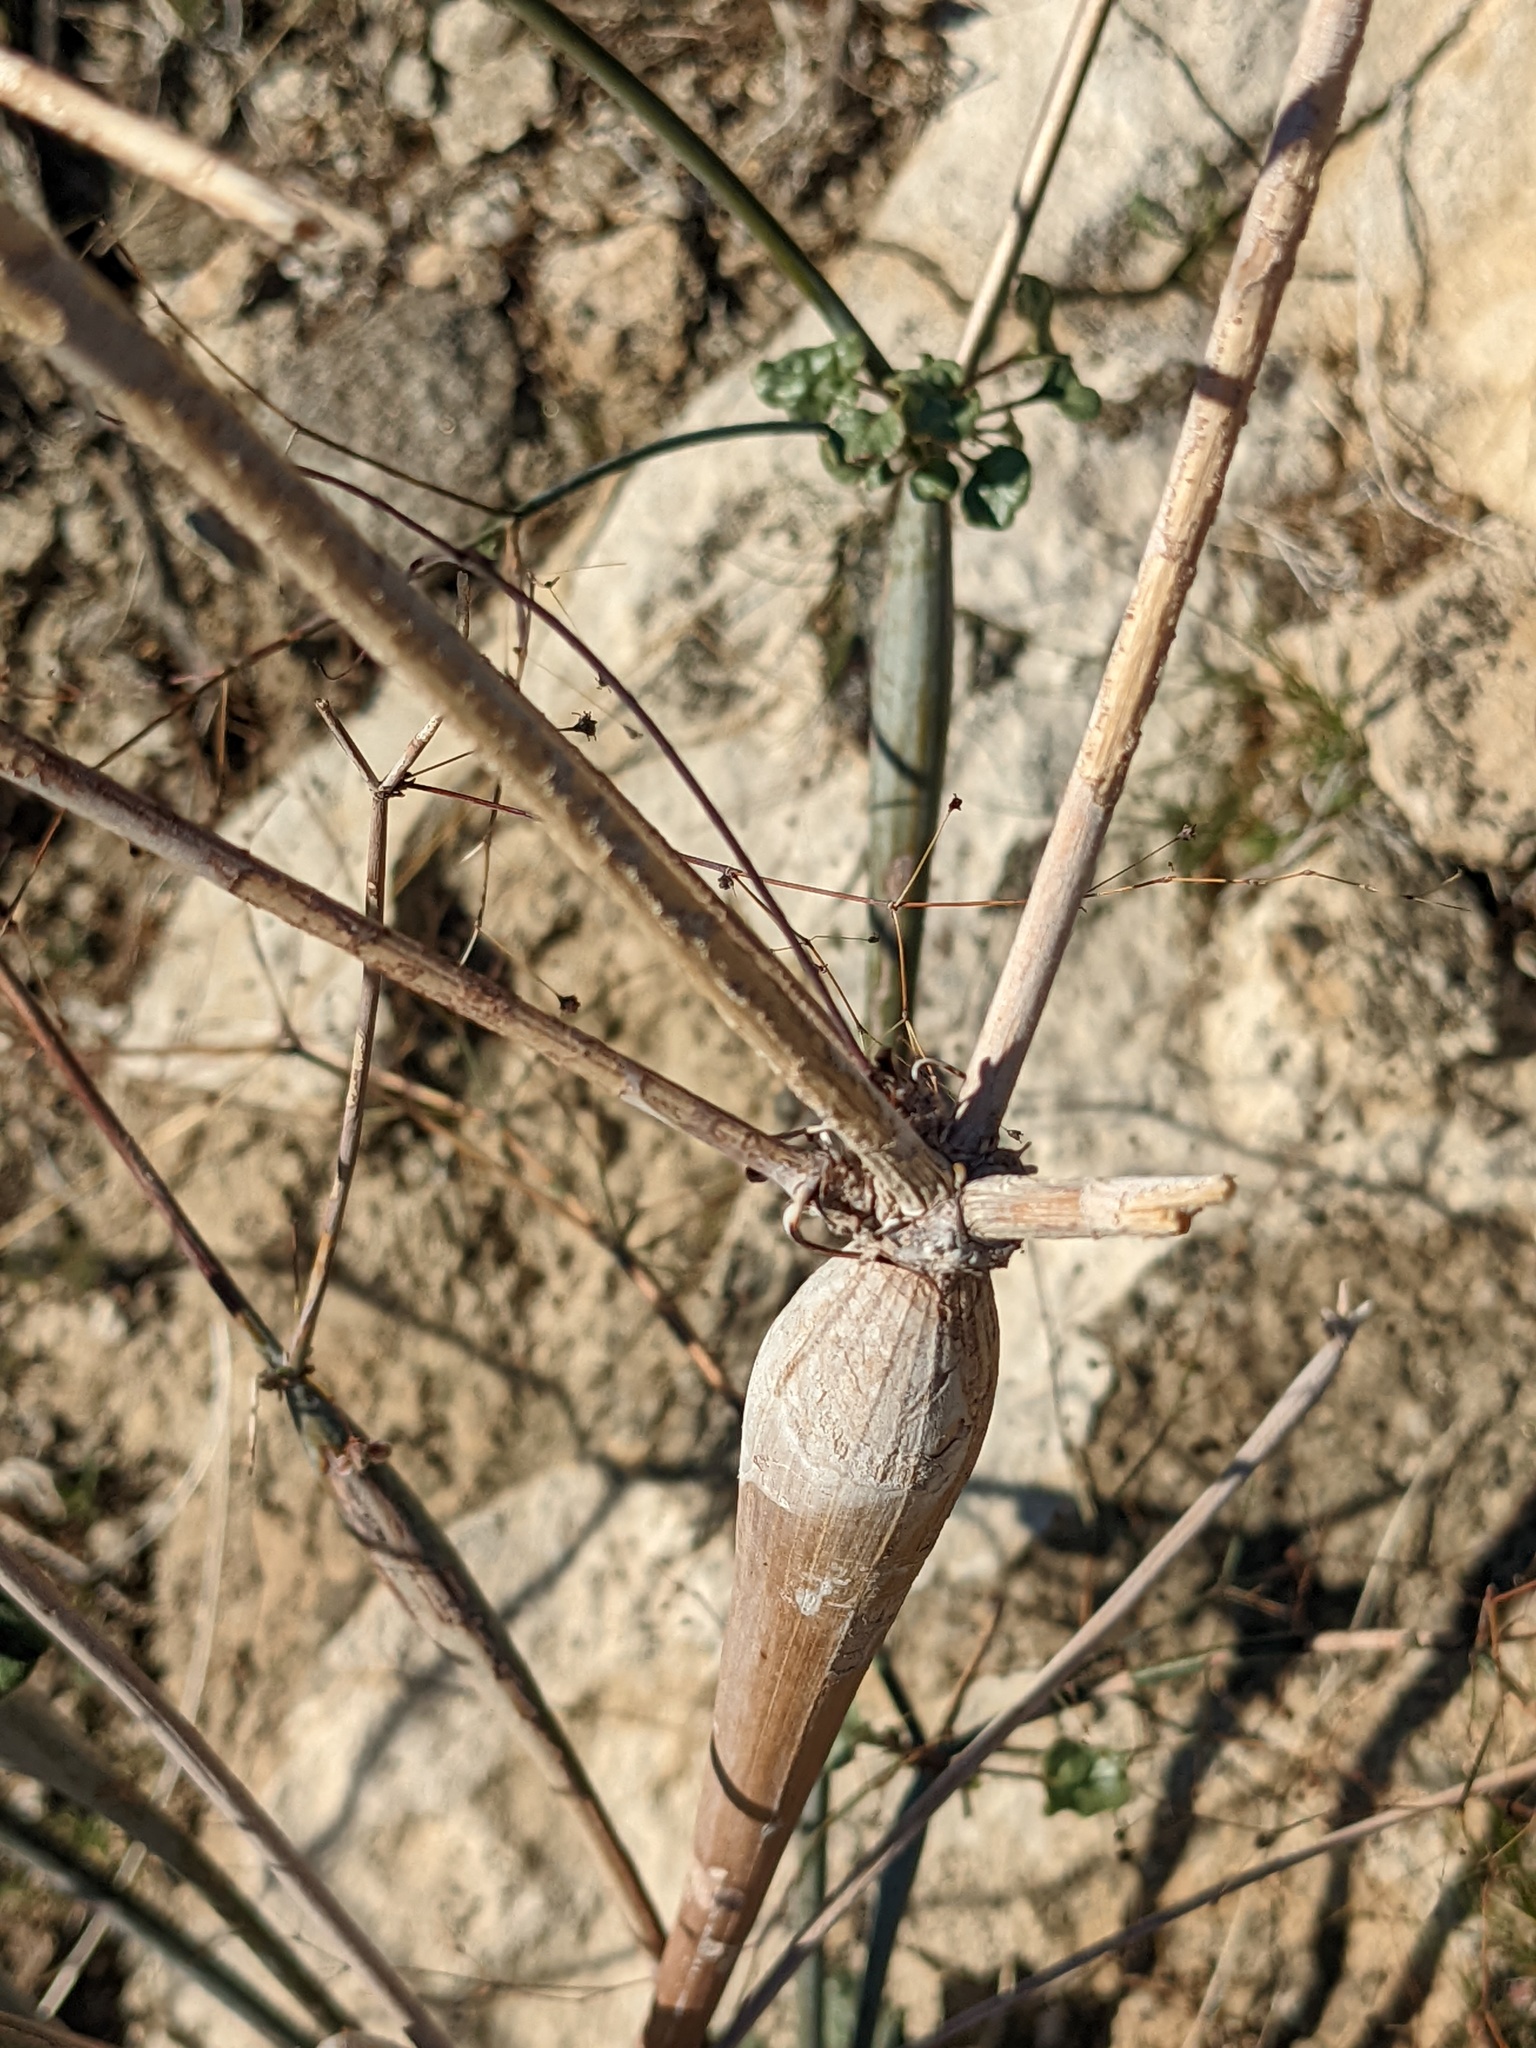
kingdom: Plantae
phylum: Tracheophyta
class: Magnoliopsida
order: Caryophyllales
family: Polygonaceae
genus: Eriogonum
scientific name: Eriogonum inflatum
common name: Desert trumpet
